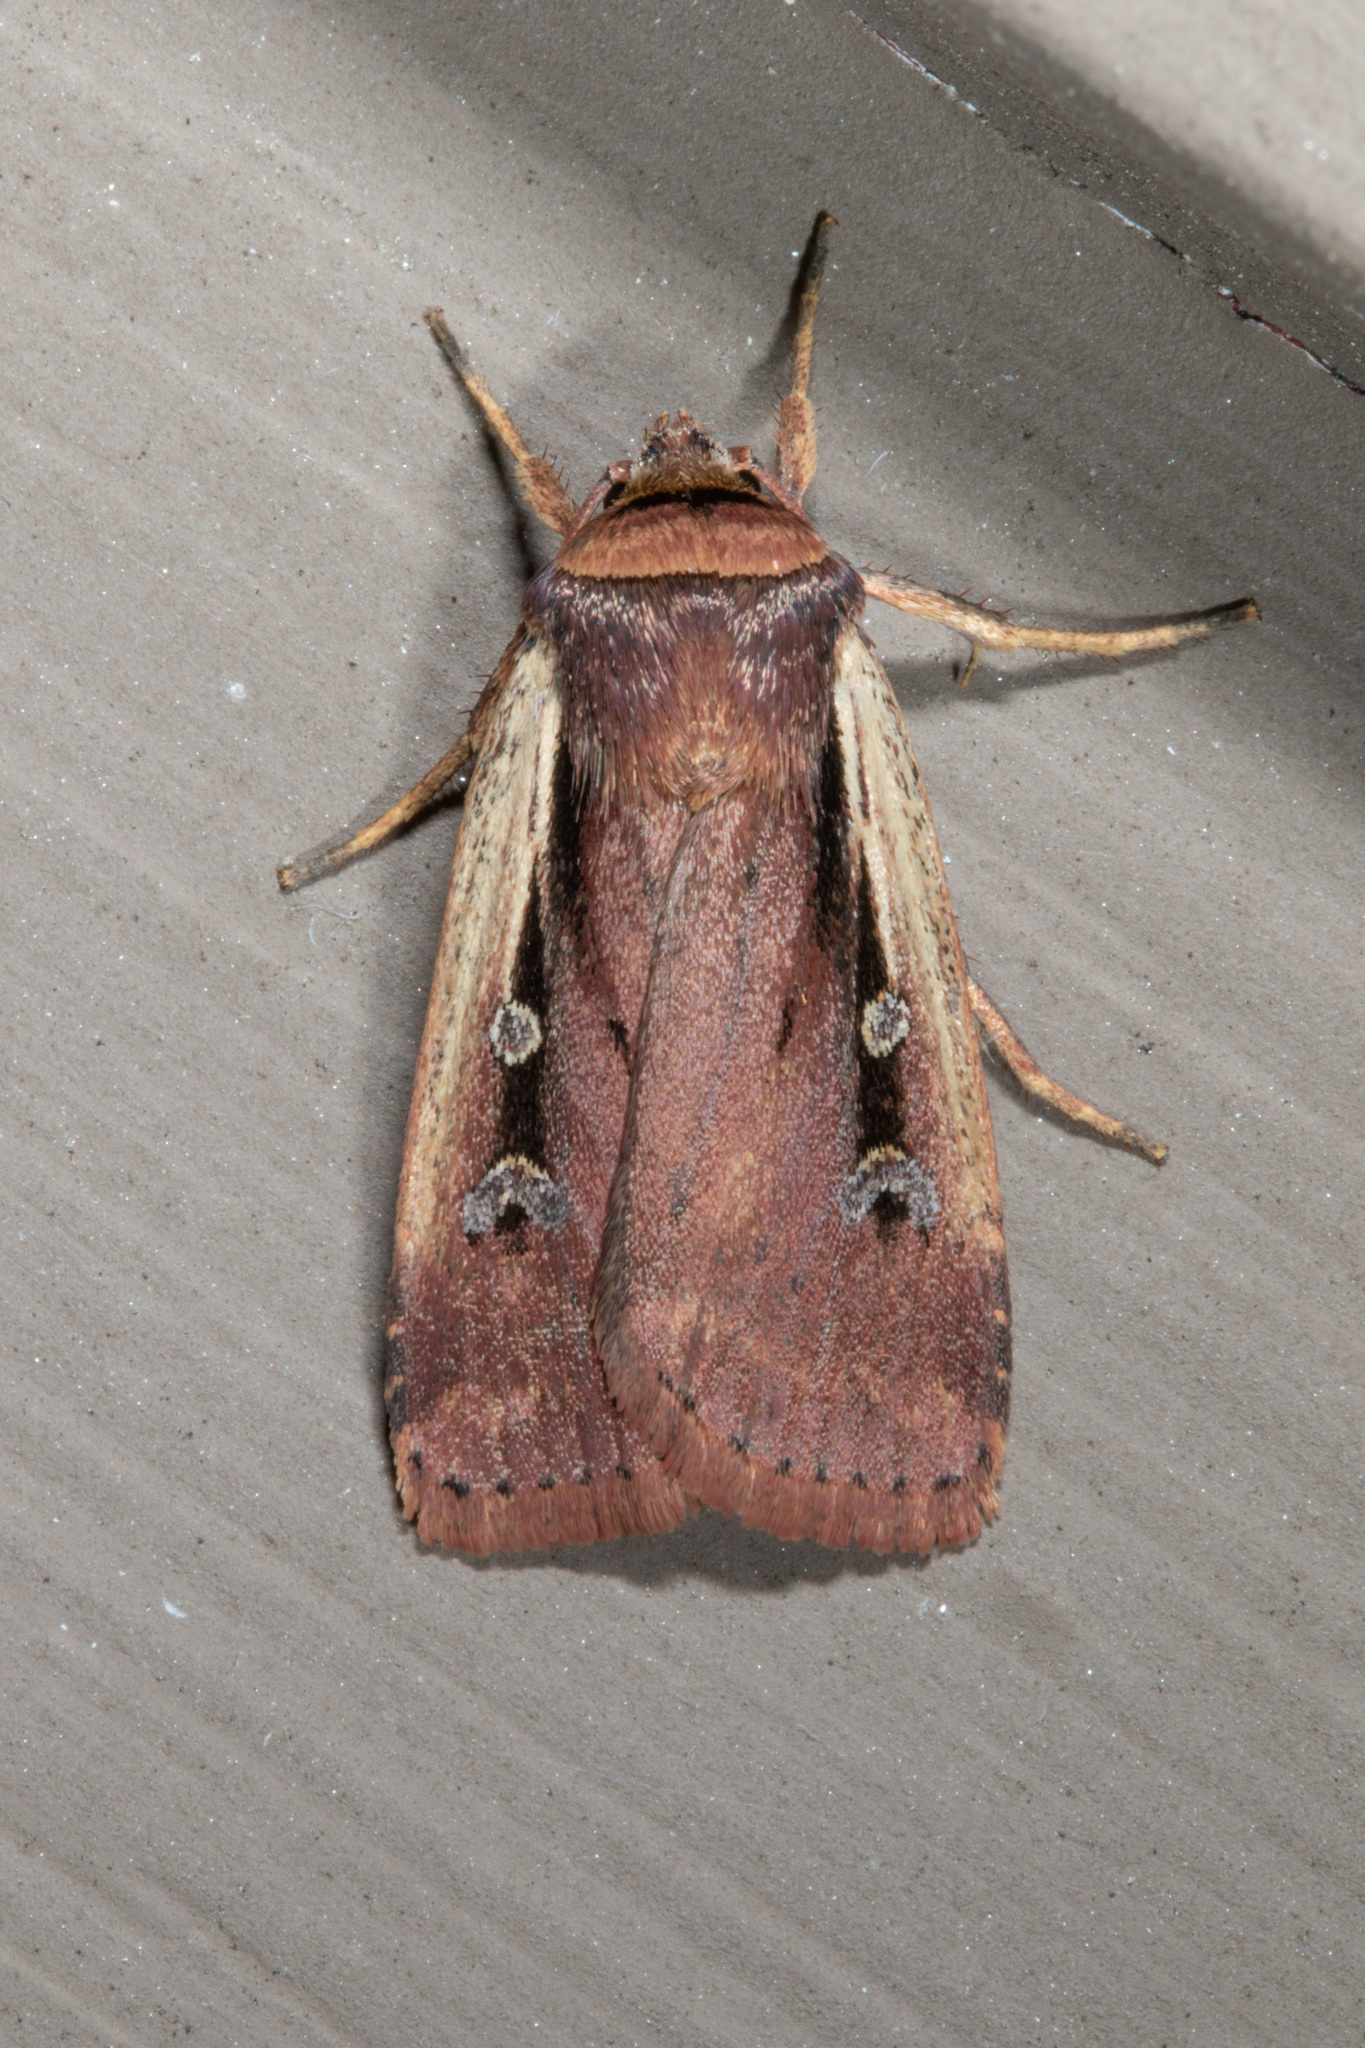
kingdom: Animalia
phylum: Arthropoda
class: Insecta
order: Lepidoptera
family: Noctuidae
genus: Ochropleura
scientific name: Ochropleura implecta
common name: Flame-shouldered dart
